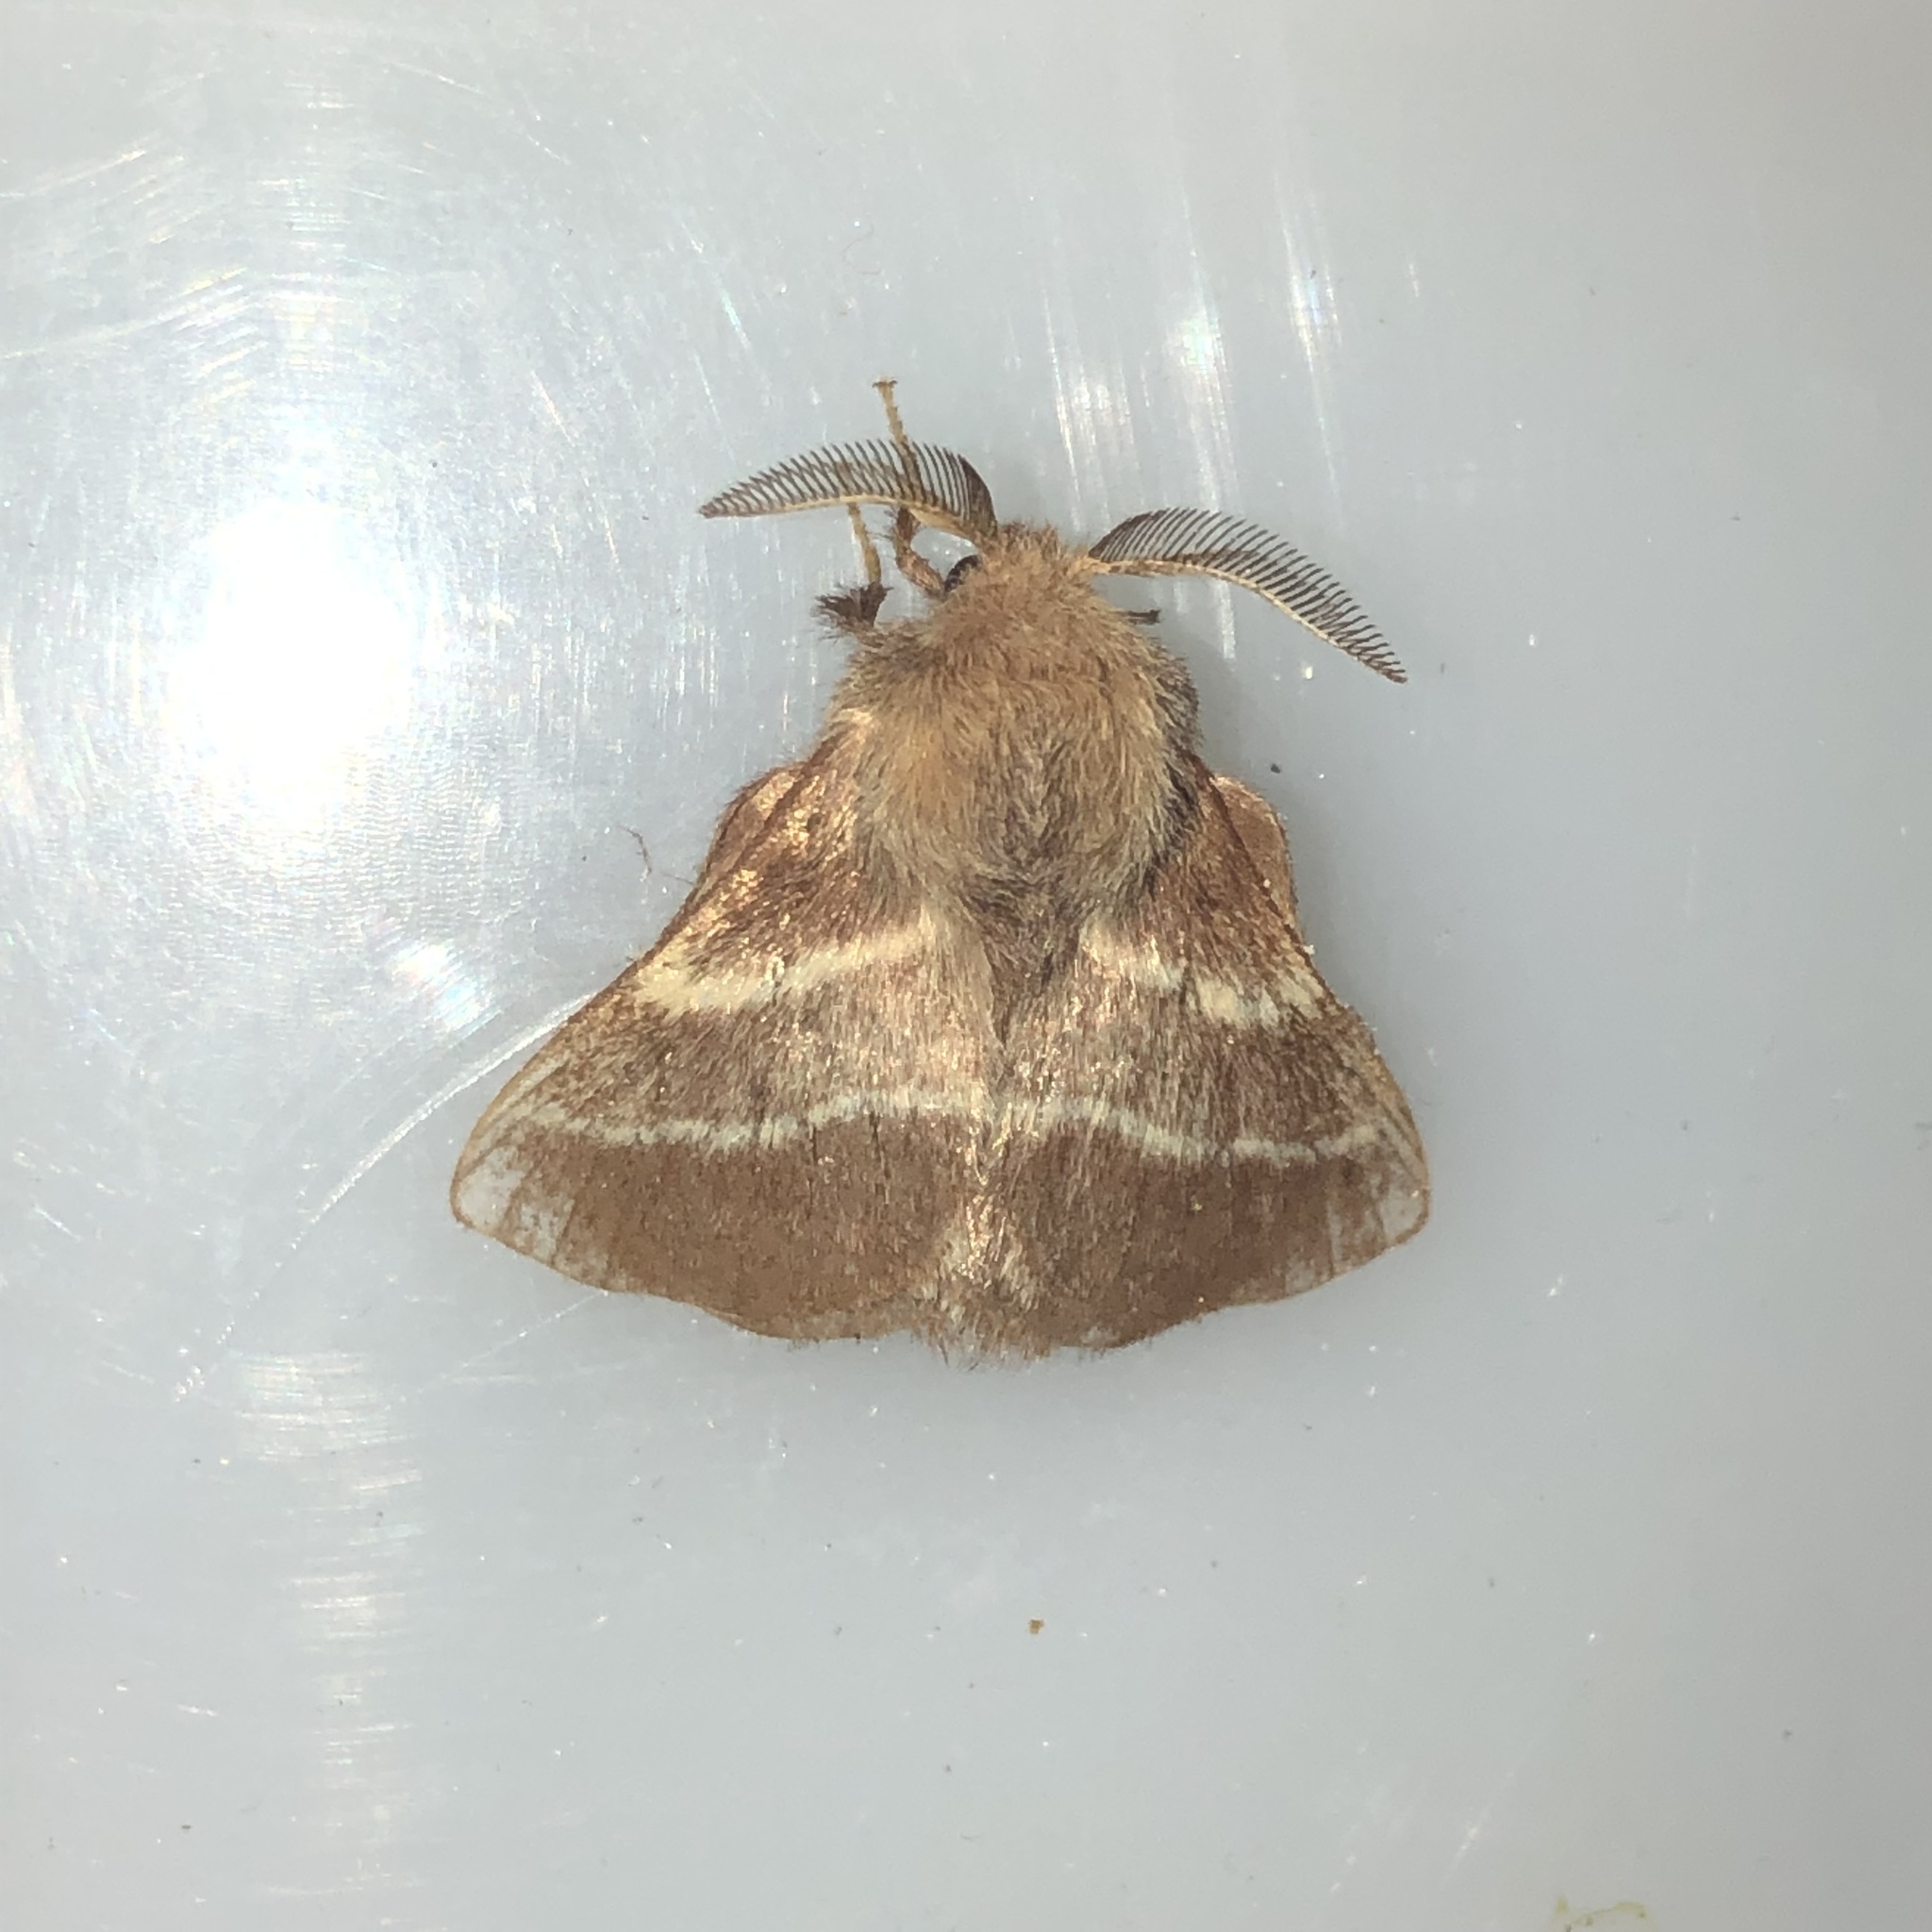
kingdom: Animalia
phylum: Arthropoda
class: Insecta
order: Lepidoptera
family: Lasiocampidae
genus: Malacosoma
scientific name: Malacosoma americana
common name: Eastern tent caterpillar moth
